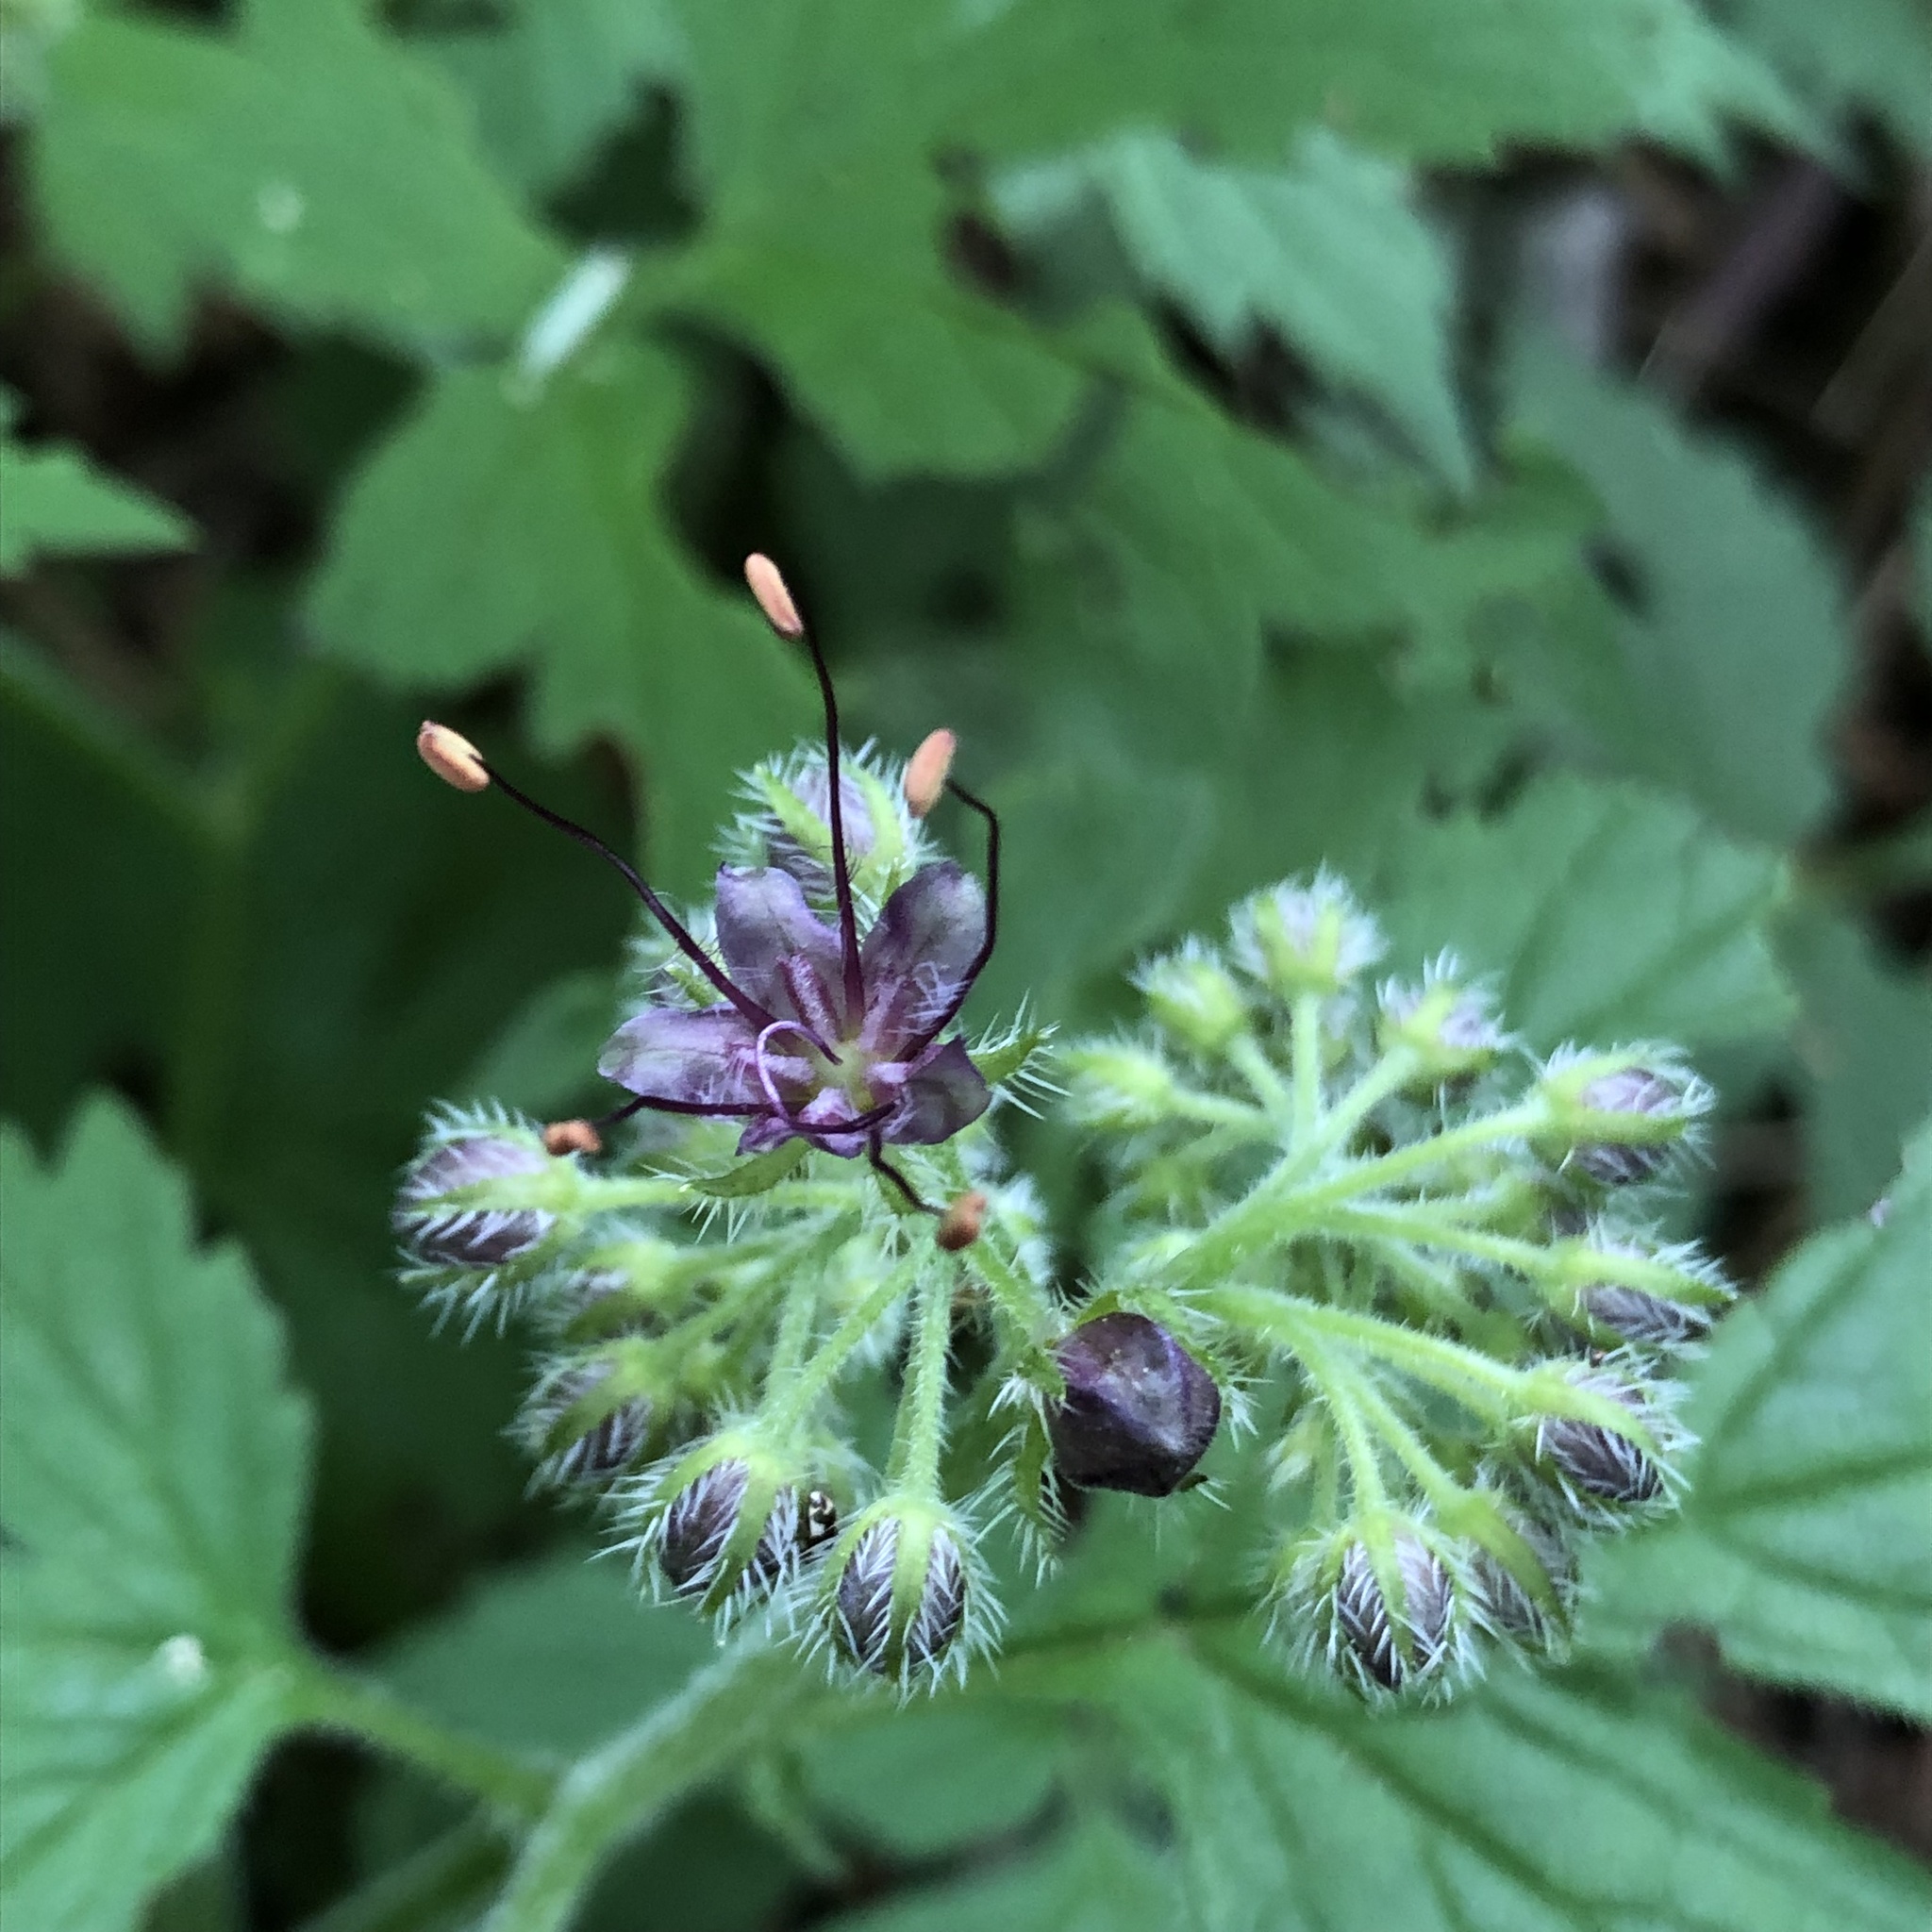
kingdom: Plantae
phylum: Tracheophyta
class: Magnoliopsida
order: Boraginales
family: Hydrophyllaceae
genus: Hydrophyllum
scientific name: Hydrophyllum tenuipes
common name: Pacific waterleaf
